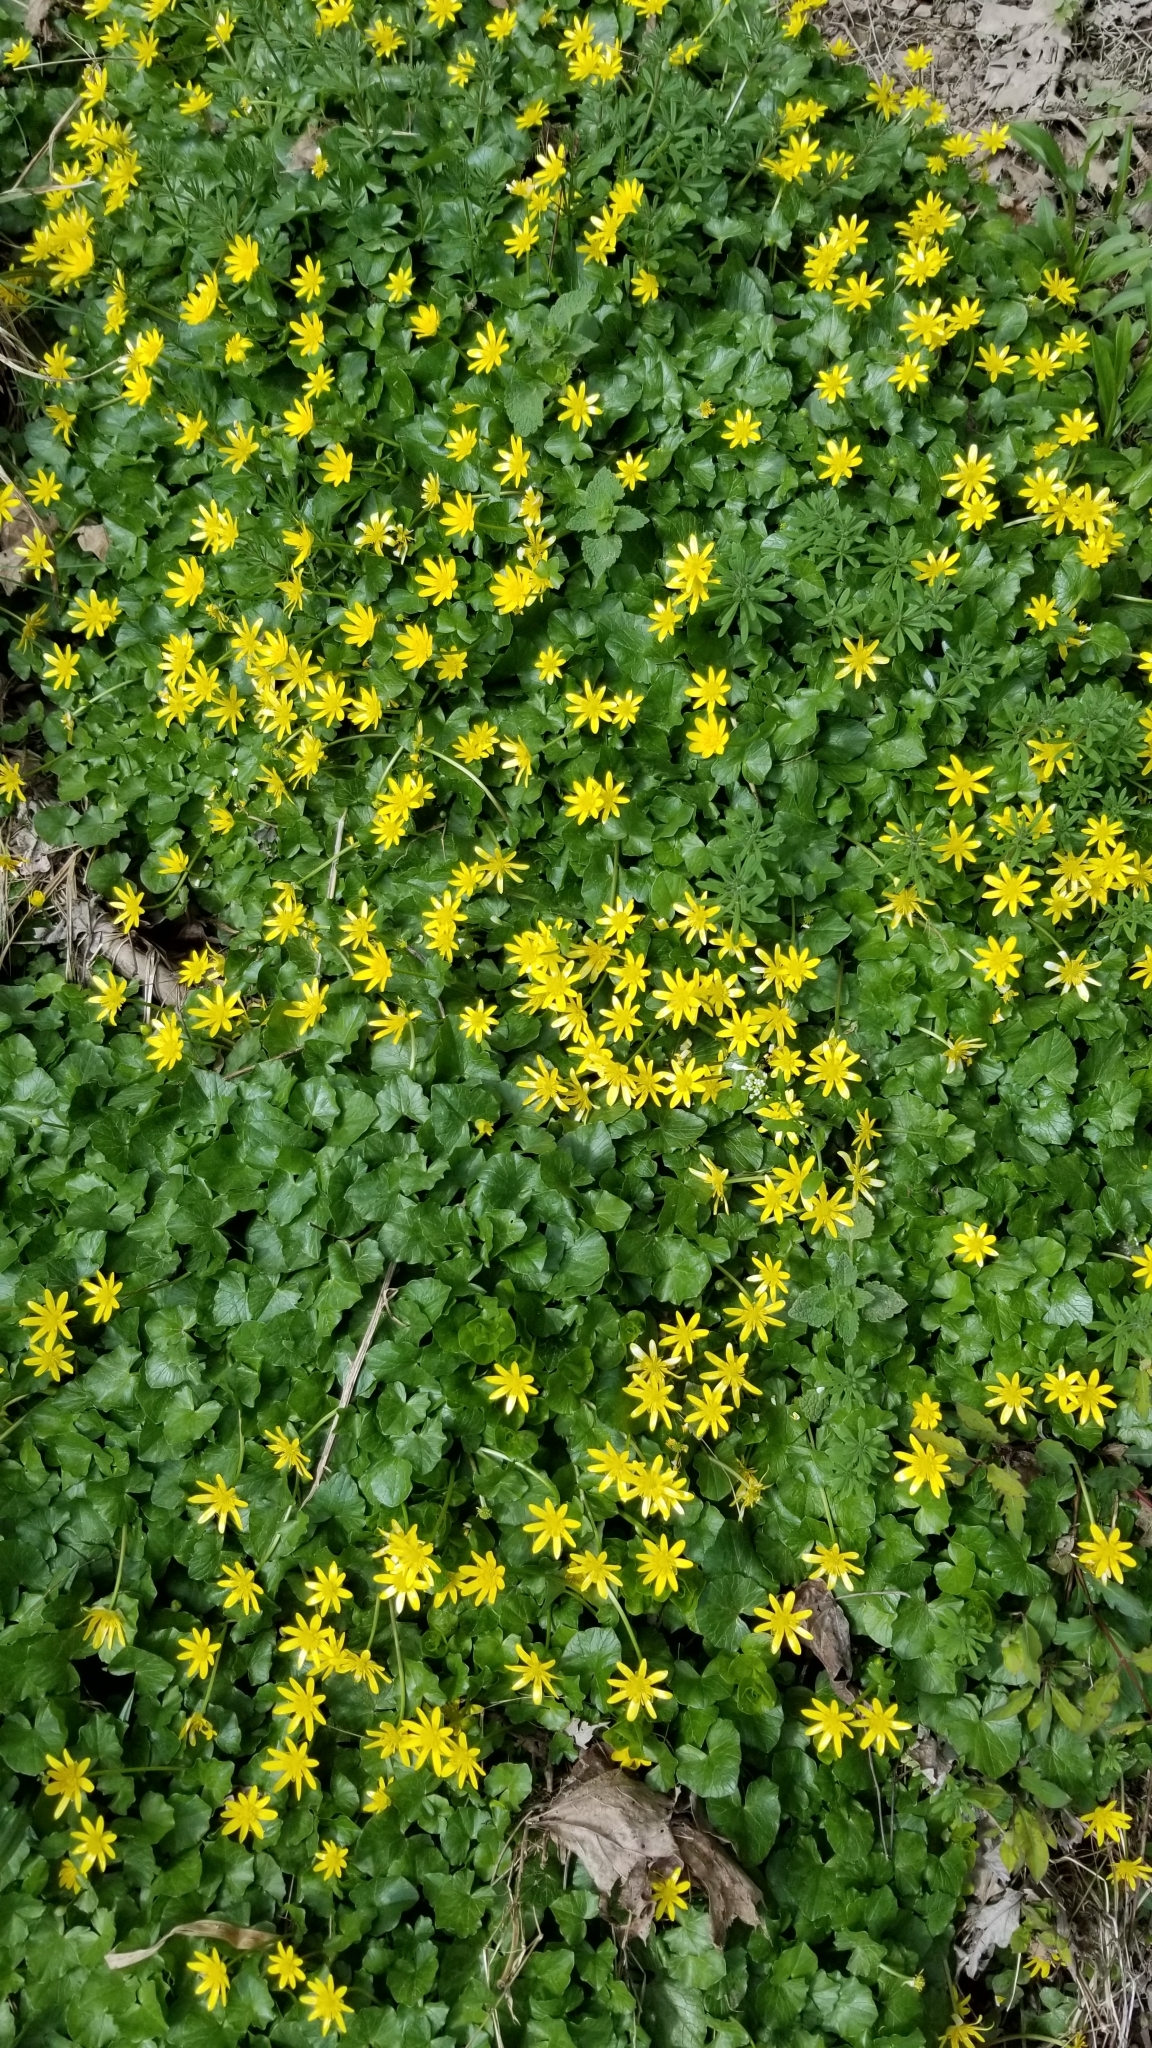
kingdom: Plantae
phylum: Tracheophyta
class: Magnoliopsida
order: Ranunculales
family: Ranunculaceae
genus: Ficaria
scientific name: Ficaria verna
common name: Lesser celandine
